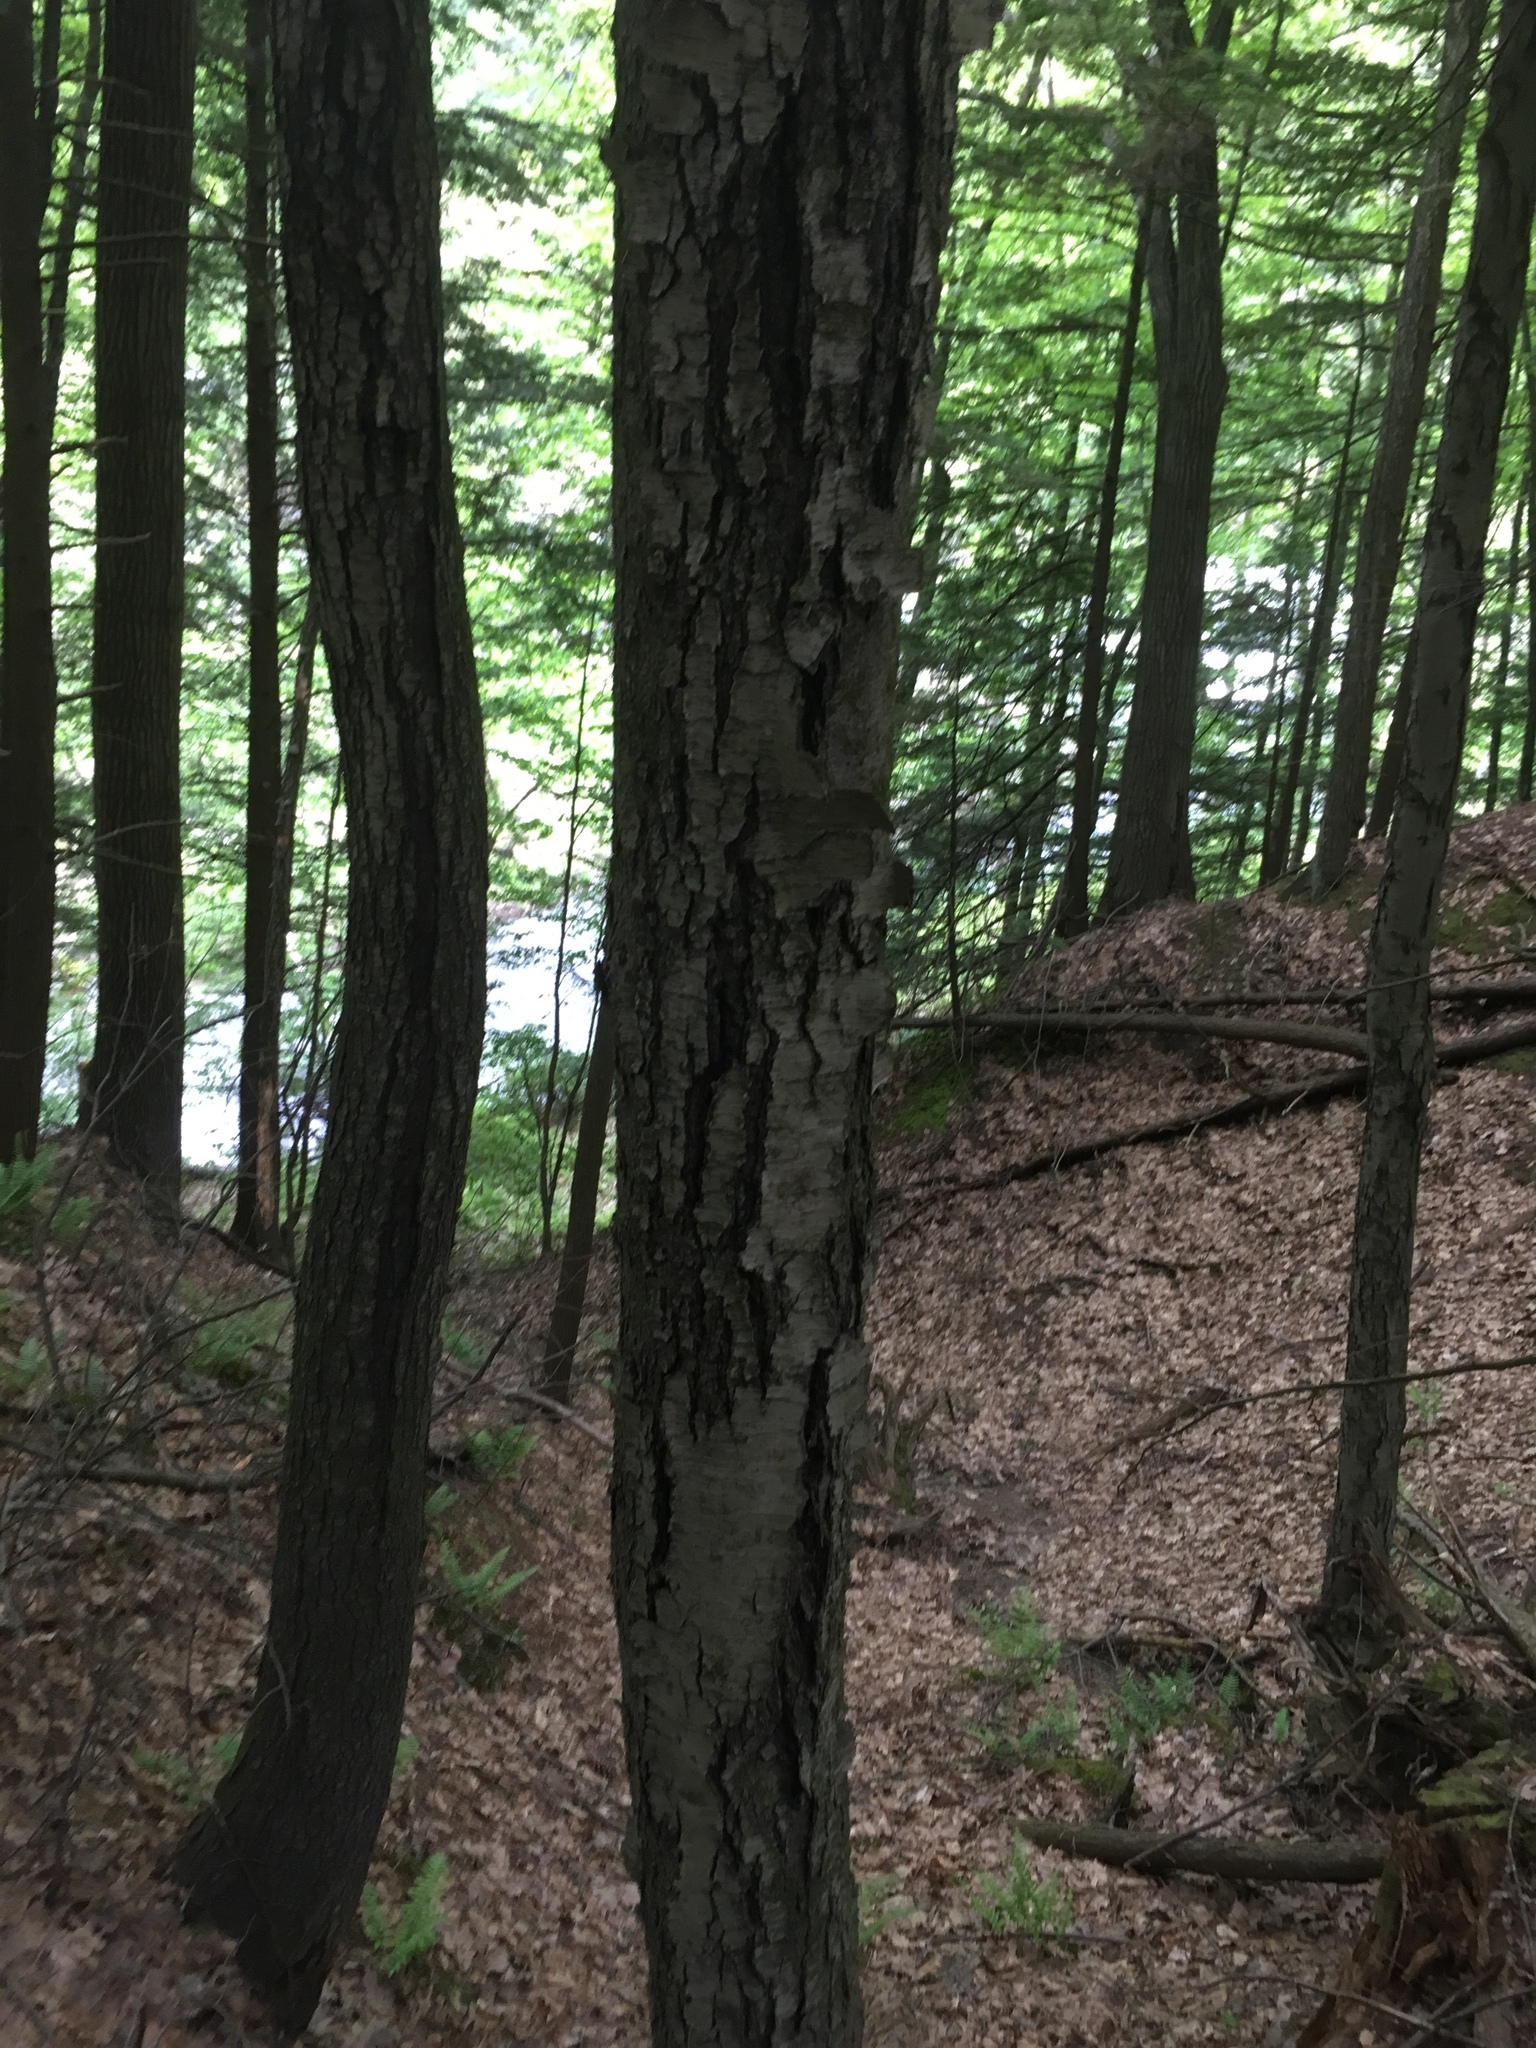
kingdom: Plantae
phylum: Tracheophyta
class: Magnoliopsida
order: Fagales
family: Betulaceae
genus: Betula
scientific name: Betula lenta
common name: Black birch
